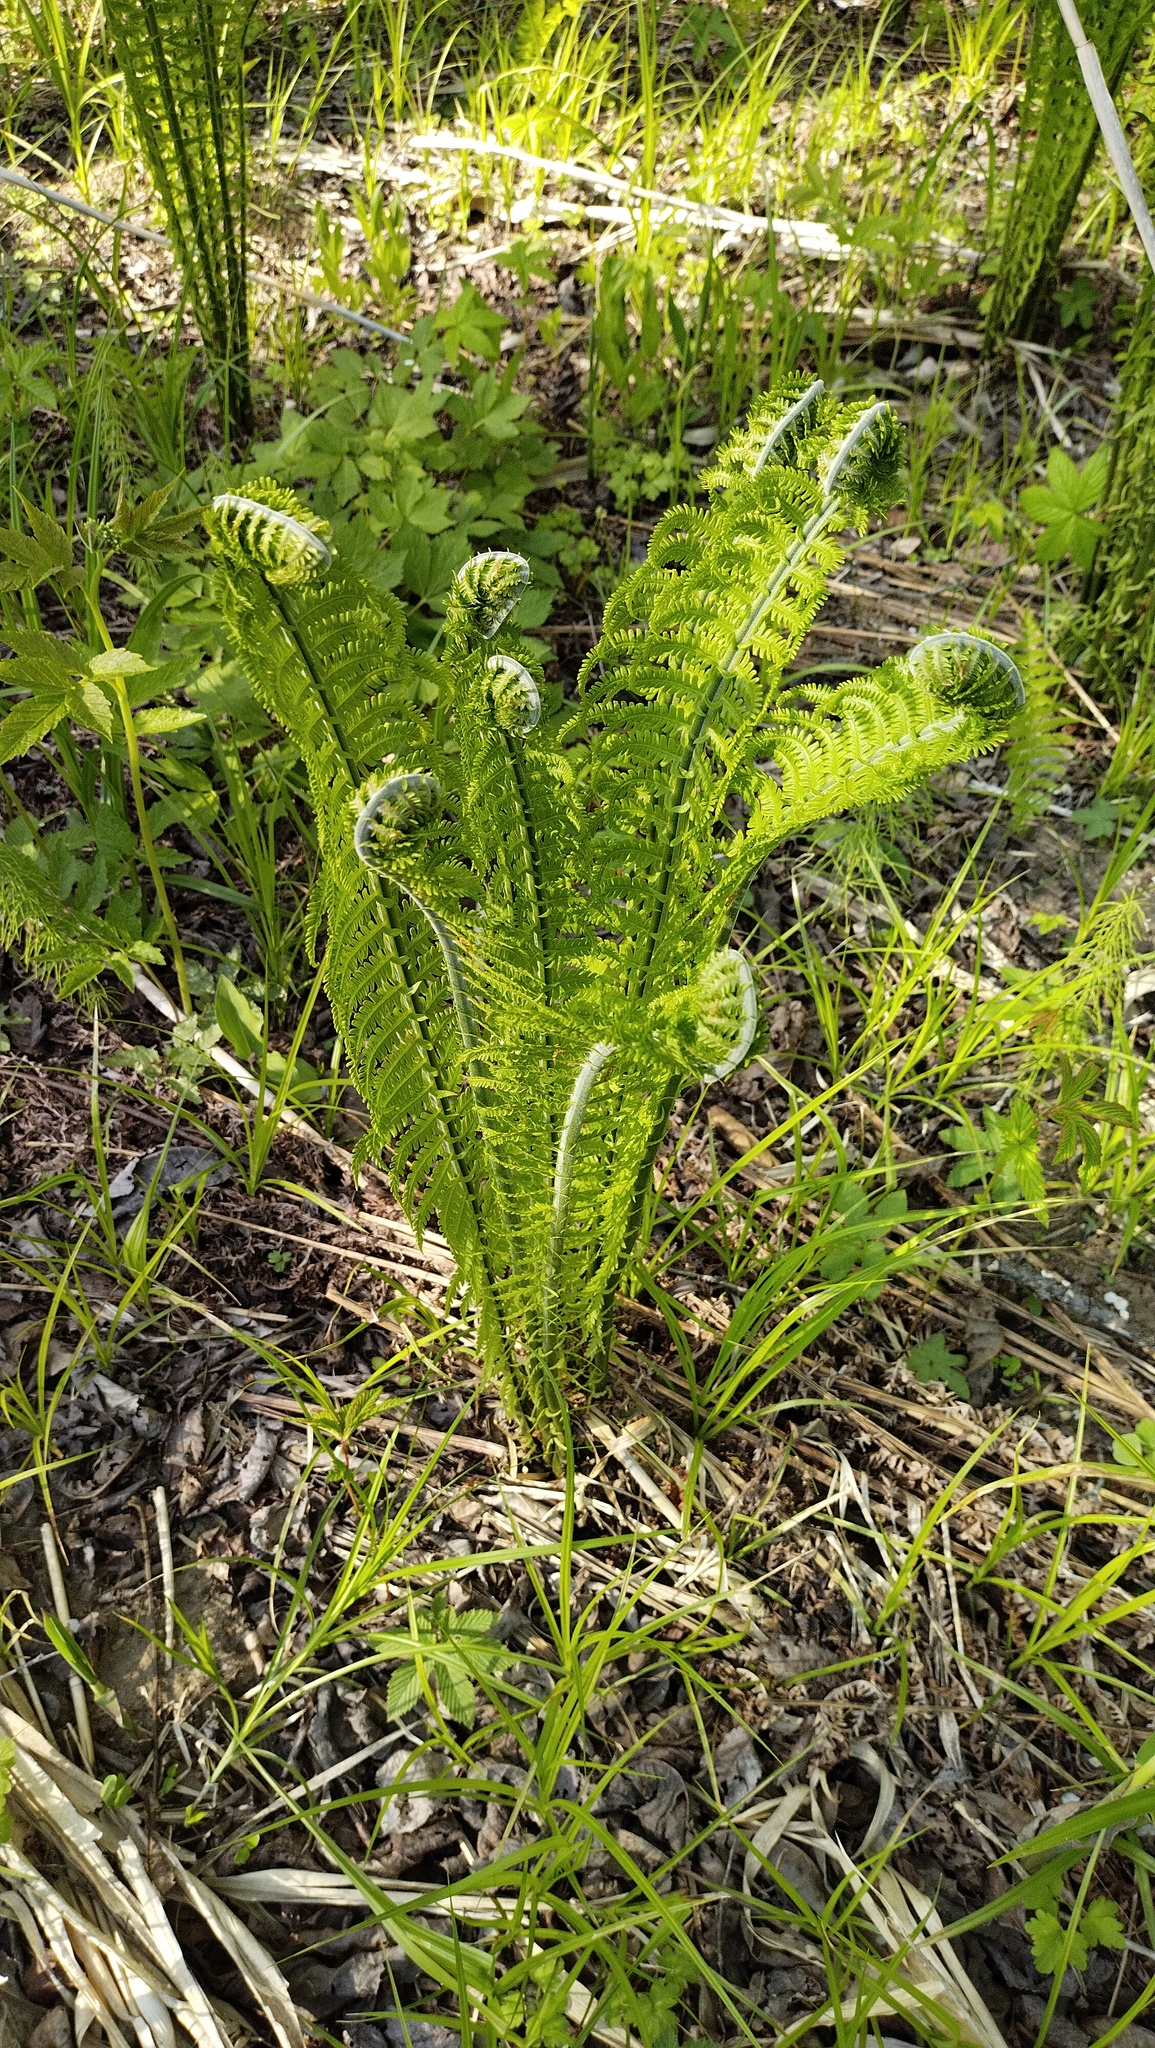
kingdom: Plantae
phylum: Tracheophyta
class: Polypodiopsida
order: Polypodiales
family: Onocleaceae
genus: Matteuccia
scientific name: Matteuccia struthiopteris
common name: Ostrich fern
